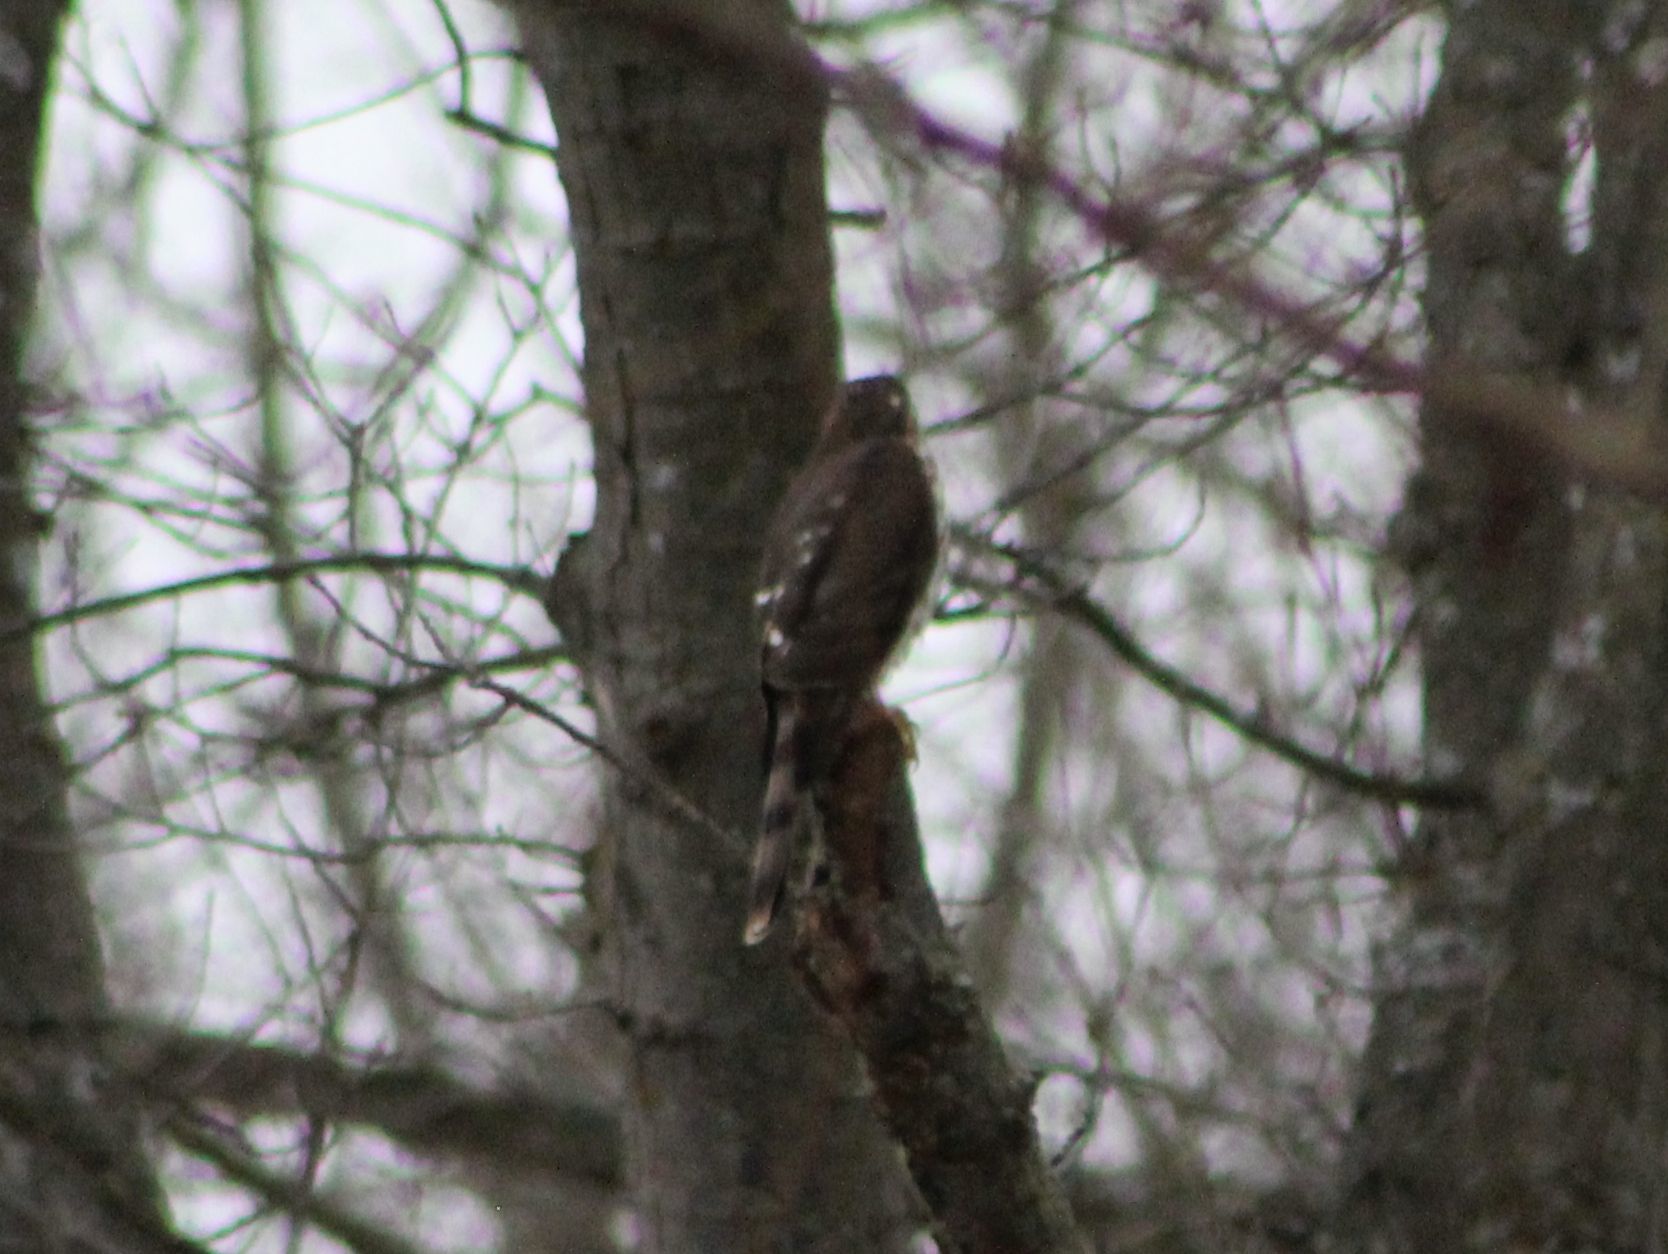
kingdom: Animalia
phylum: Chordata
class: Aves
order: Accipitriformes
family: Accipitridae
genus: Accipiter
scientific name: Accipiter cooperii
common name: Cooper's hawk
